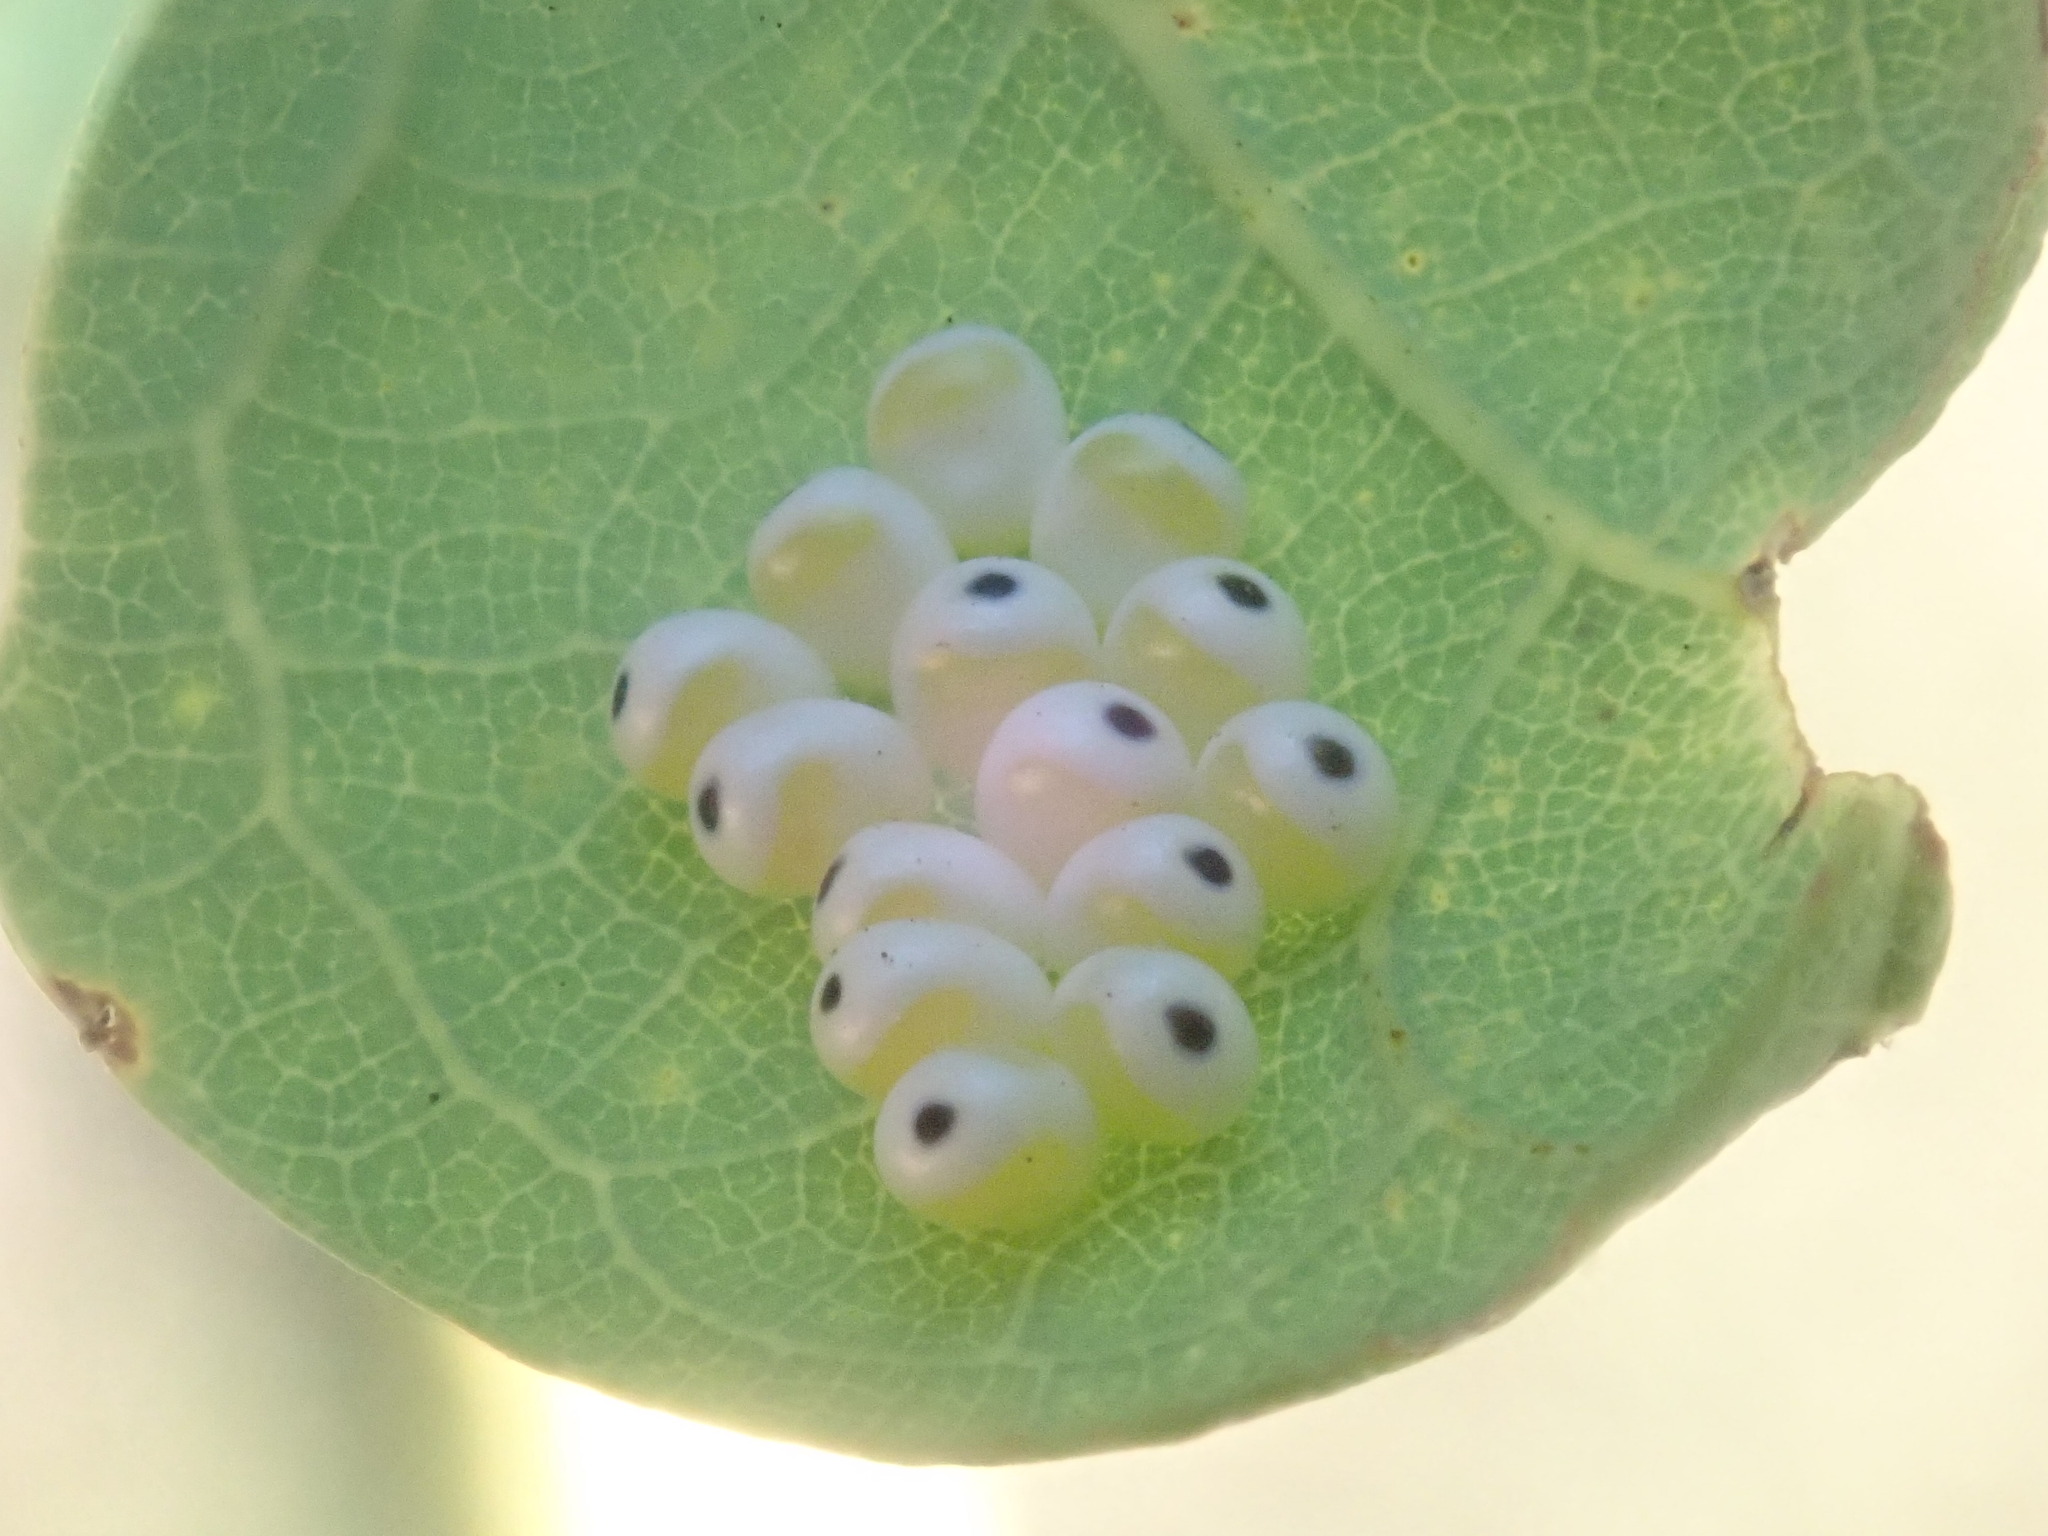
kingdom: Animalia
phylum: Arthropoda
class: Insecta
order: Lepidoptera
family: Saturniidae
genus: Automeris
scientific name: Automeris io
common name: Io moth
